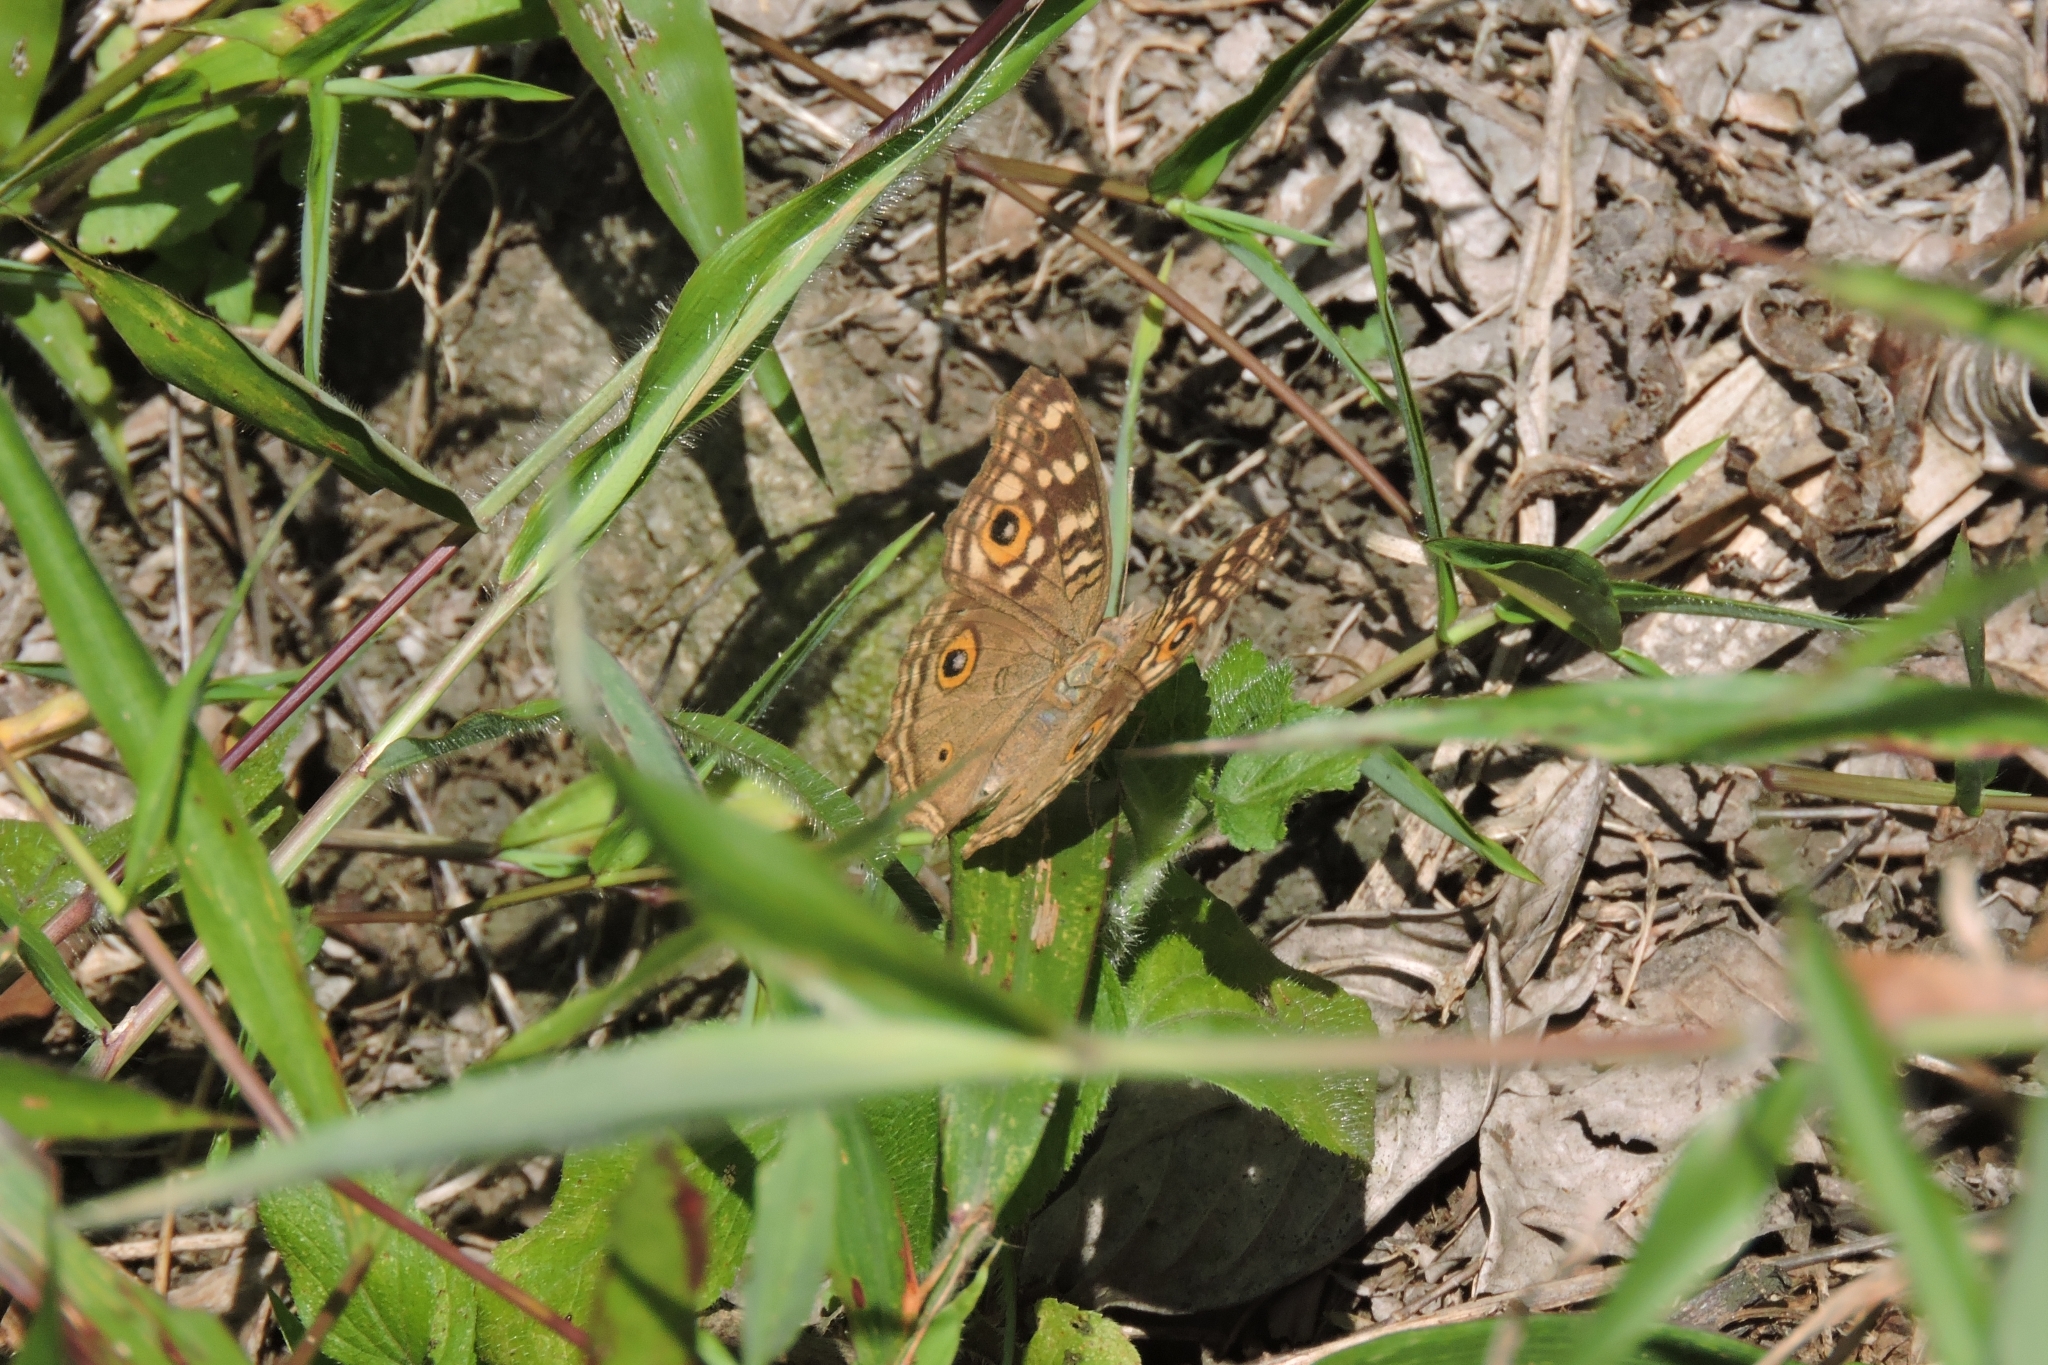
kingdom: Animalia
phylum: Arthropoda
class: Insecta
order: Lepidoptera
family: Nymphalidae
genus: Junonia
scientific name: Junonia lemonias
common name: Lemon pansy
